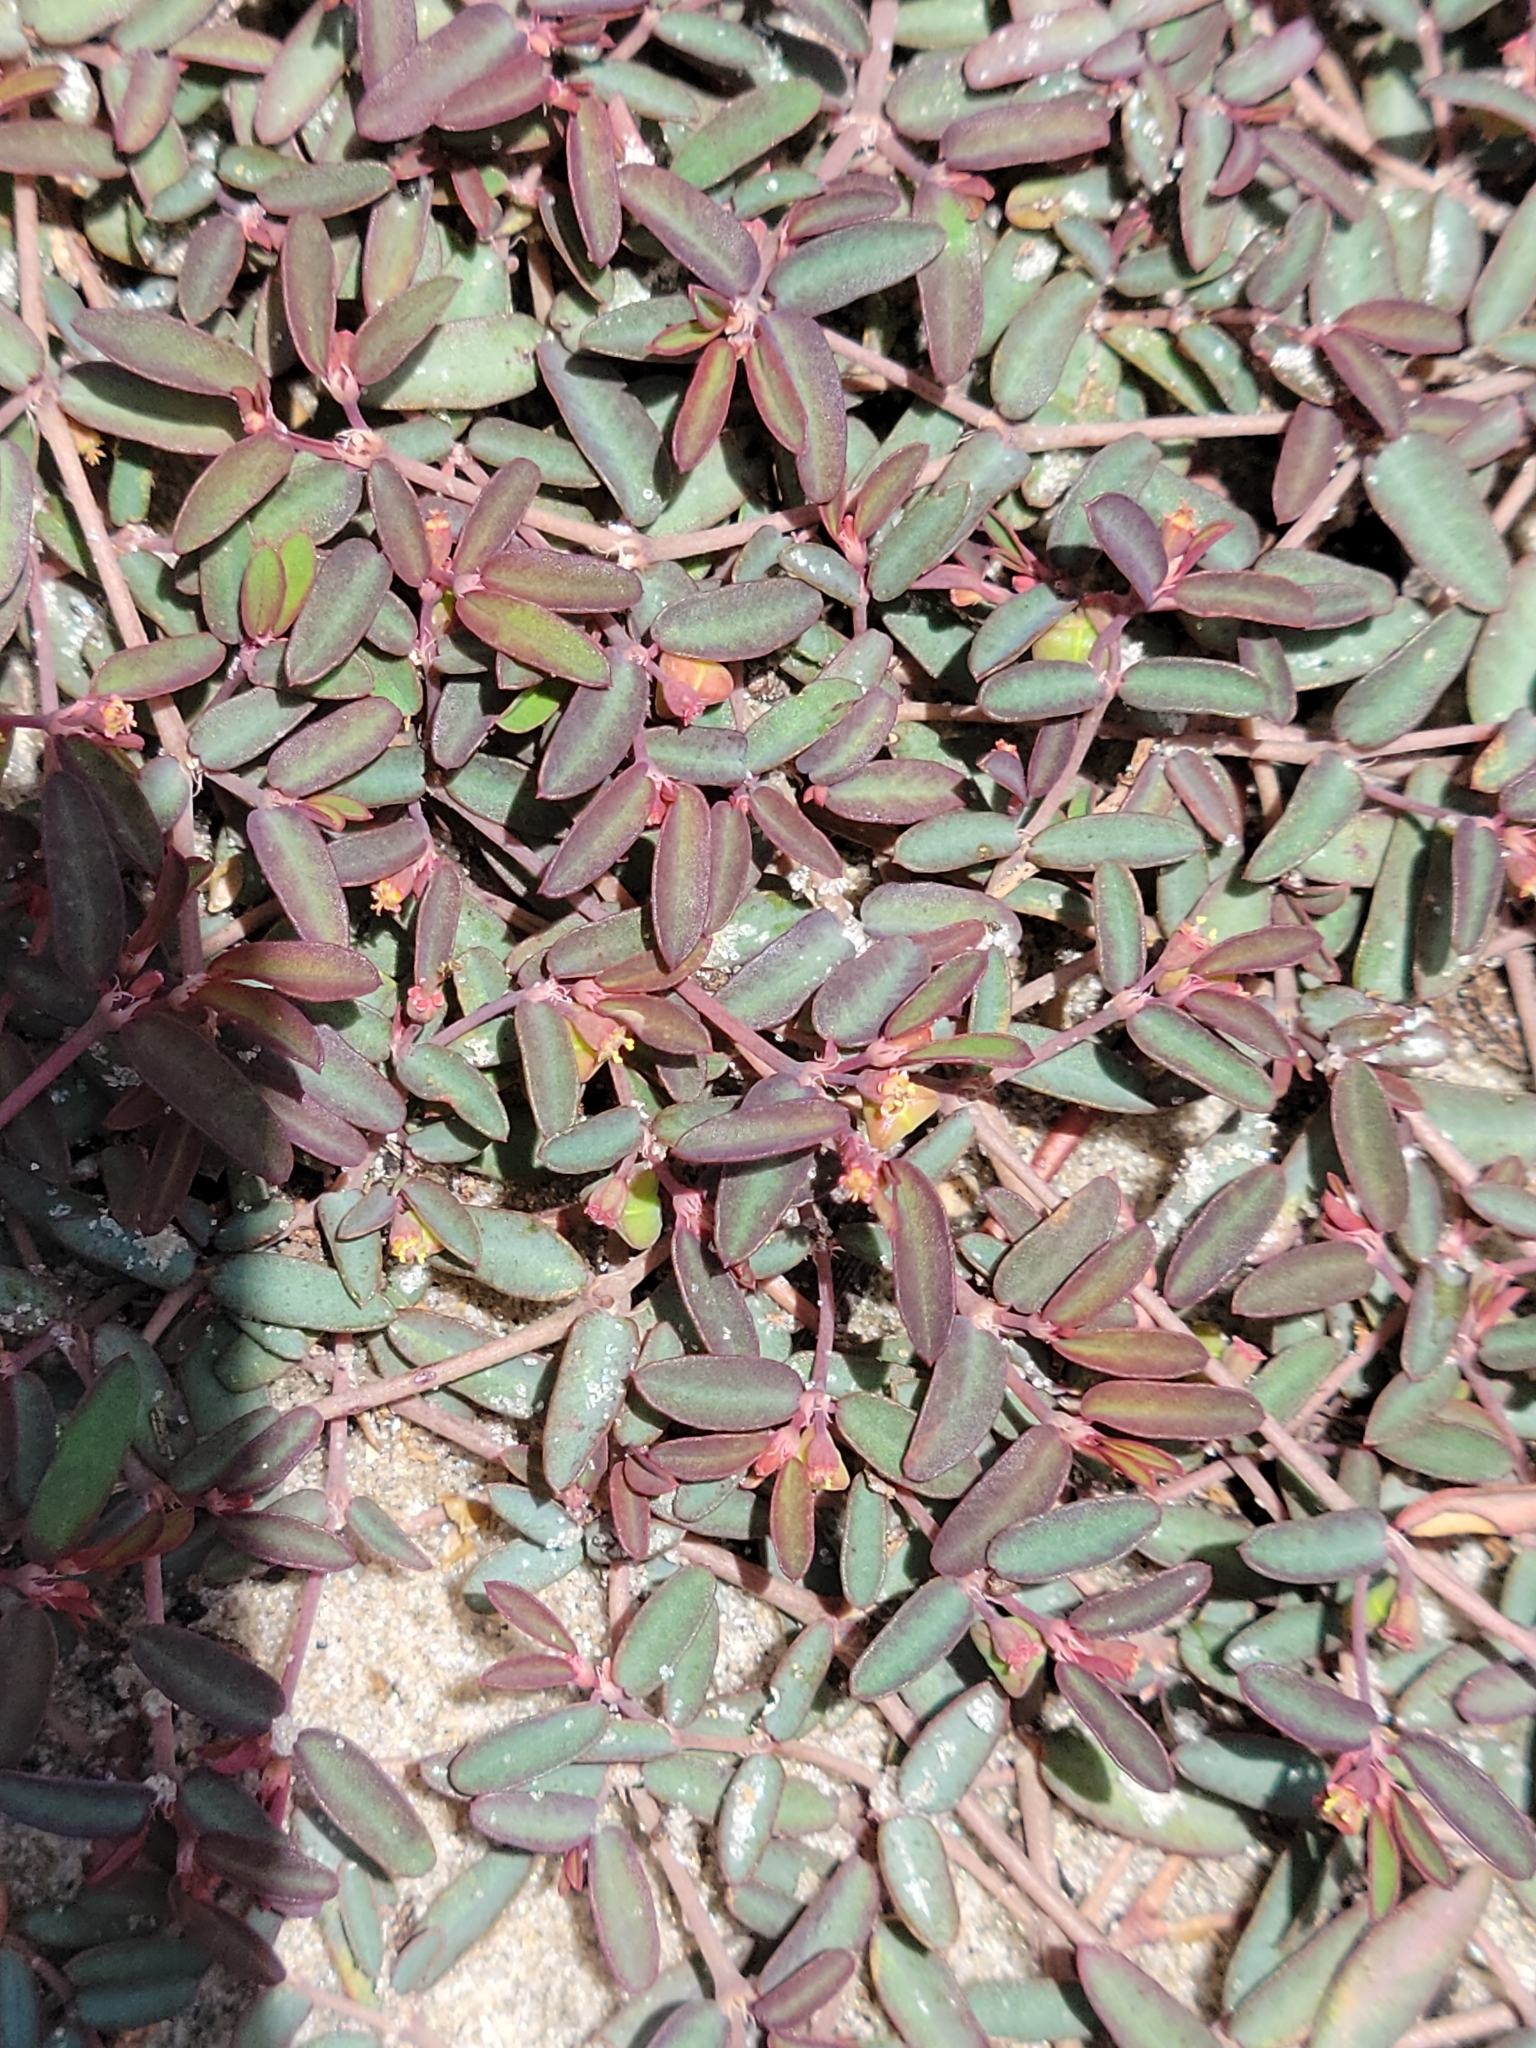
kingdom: Plantae
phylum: Tracheophyta
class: Magnoliopsida
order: Malpighiales
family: Euphorbiaceae
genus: Euphorbia
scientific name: Euphorbia cumulicola
